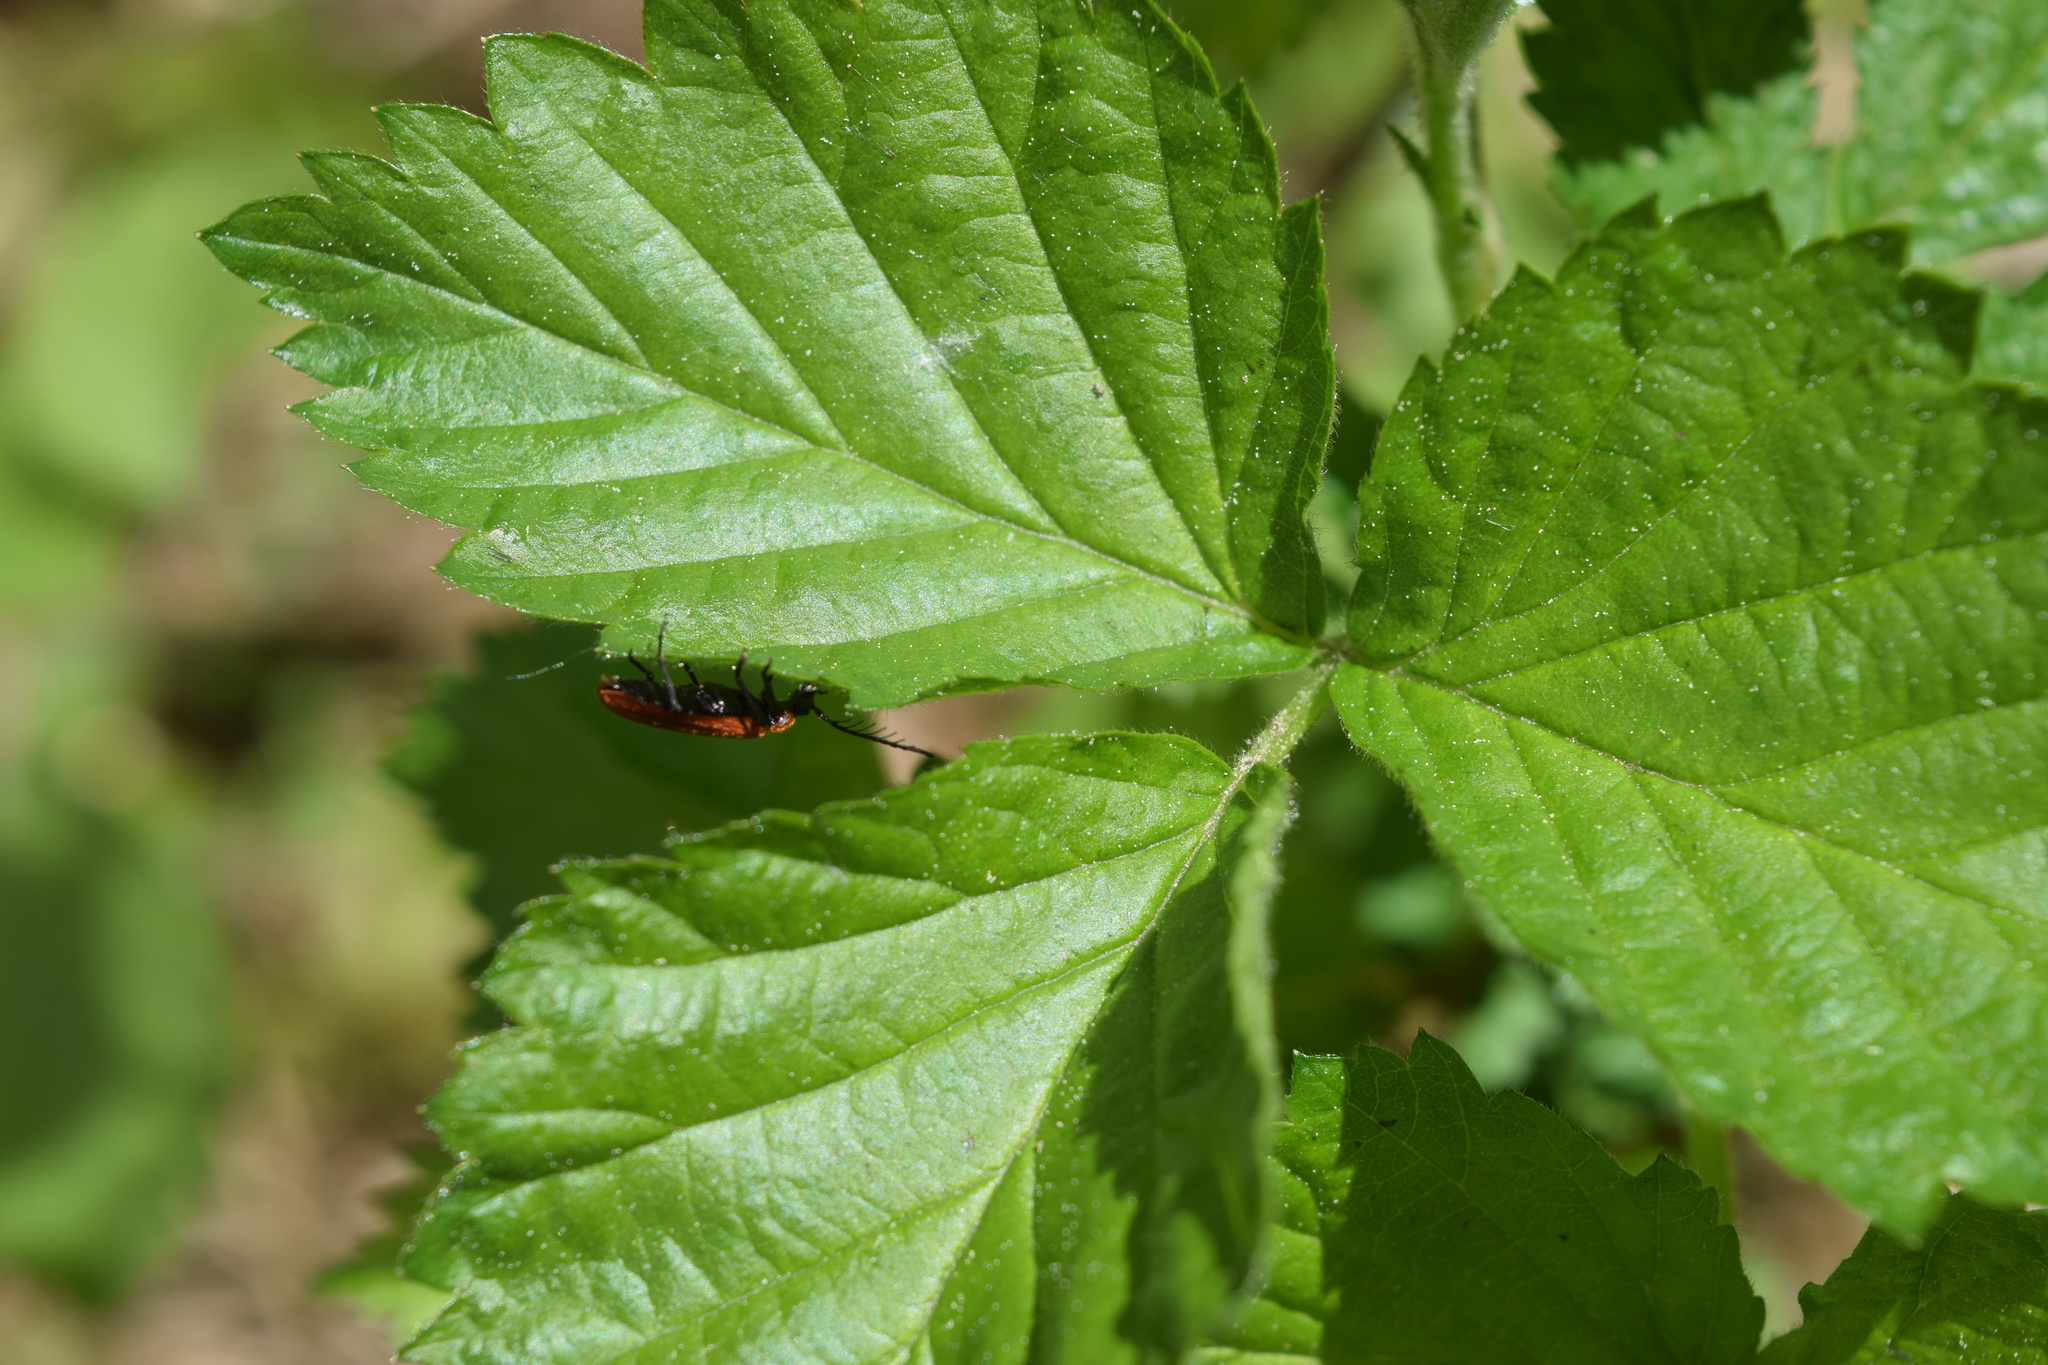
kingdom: Animalia
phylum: Arthropoda
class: Insecta
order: Coleoptera
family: Pyrochroidae
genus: Schizotus
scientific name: Schizotus pectinicornis
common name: Scarce cardinal beetle
